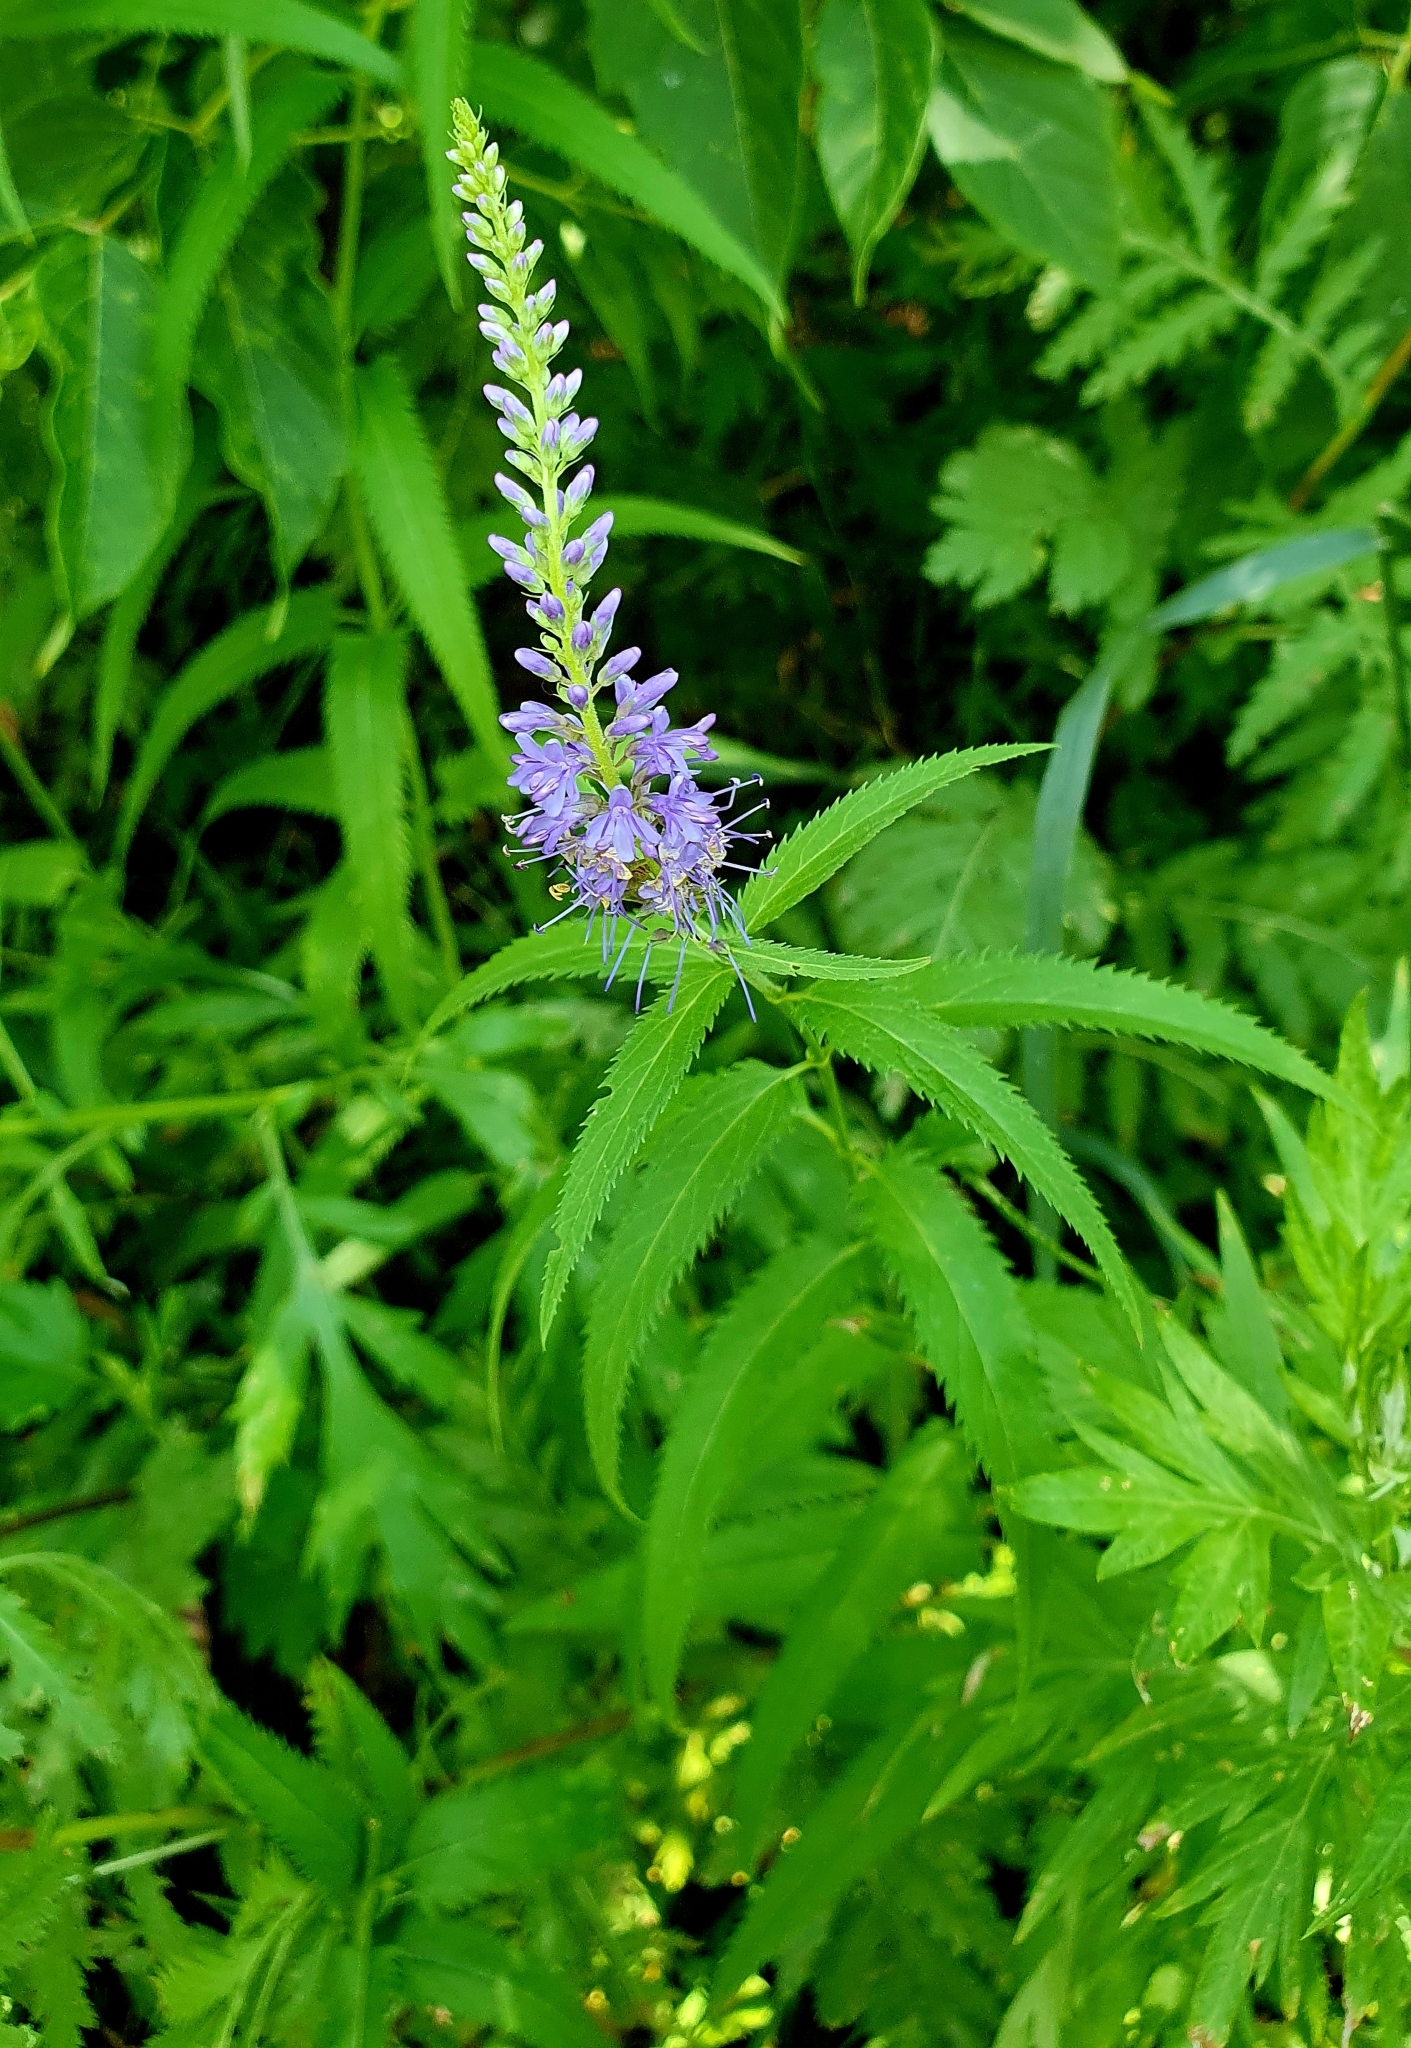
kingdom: Plantae
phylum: Tracheophyta
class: Magnoliopsida
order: Lamiales
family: Plantaginaceae
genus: Veronica
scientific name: Veronica longifolia
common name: Garden speedwell
